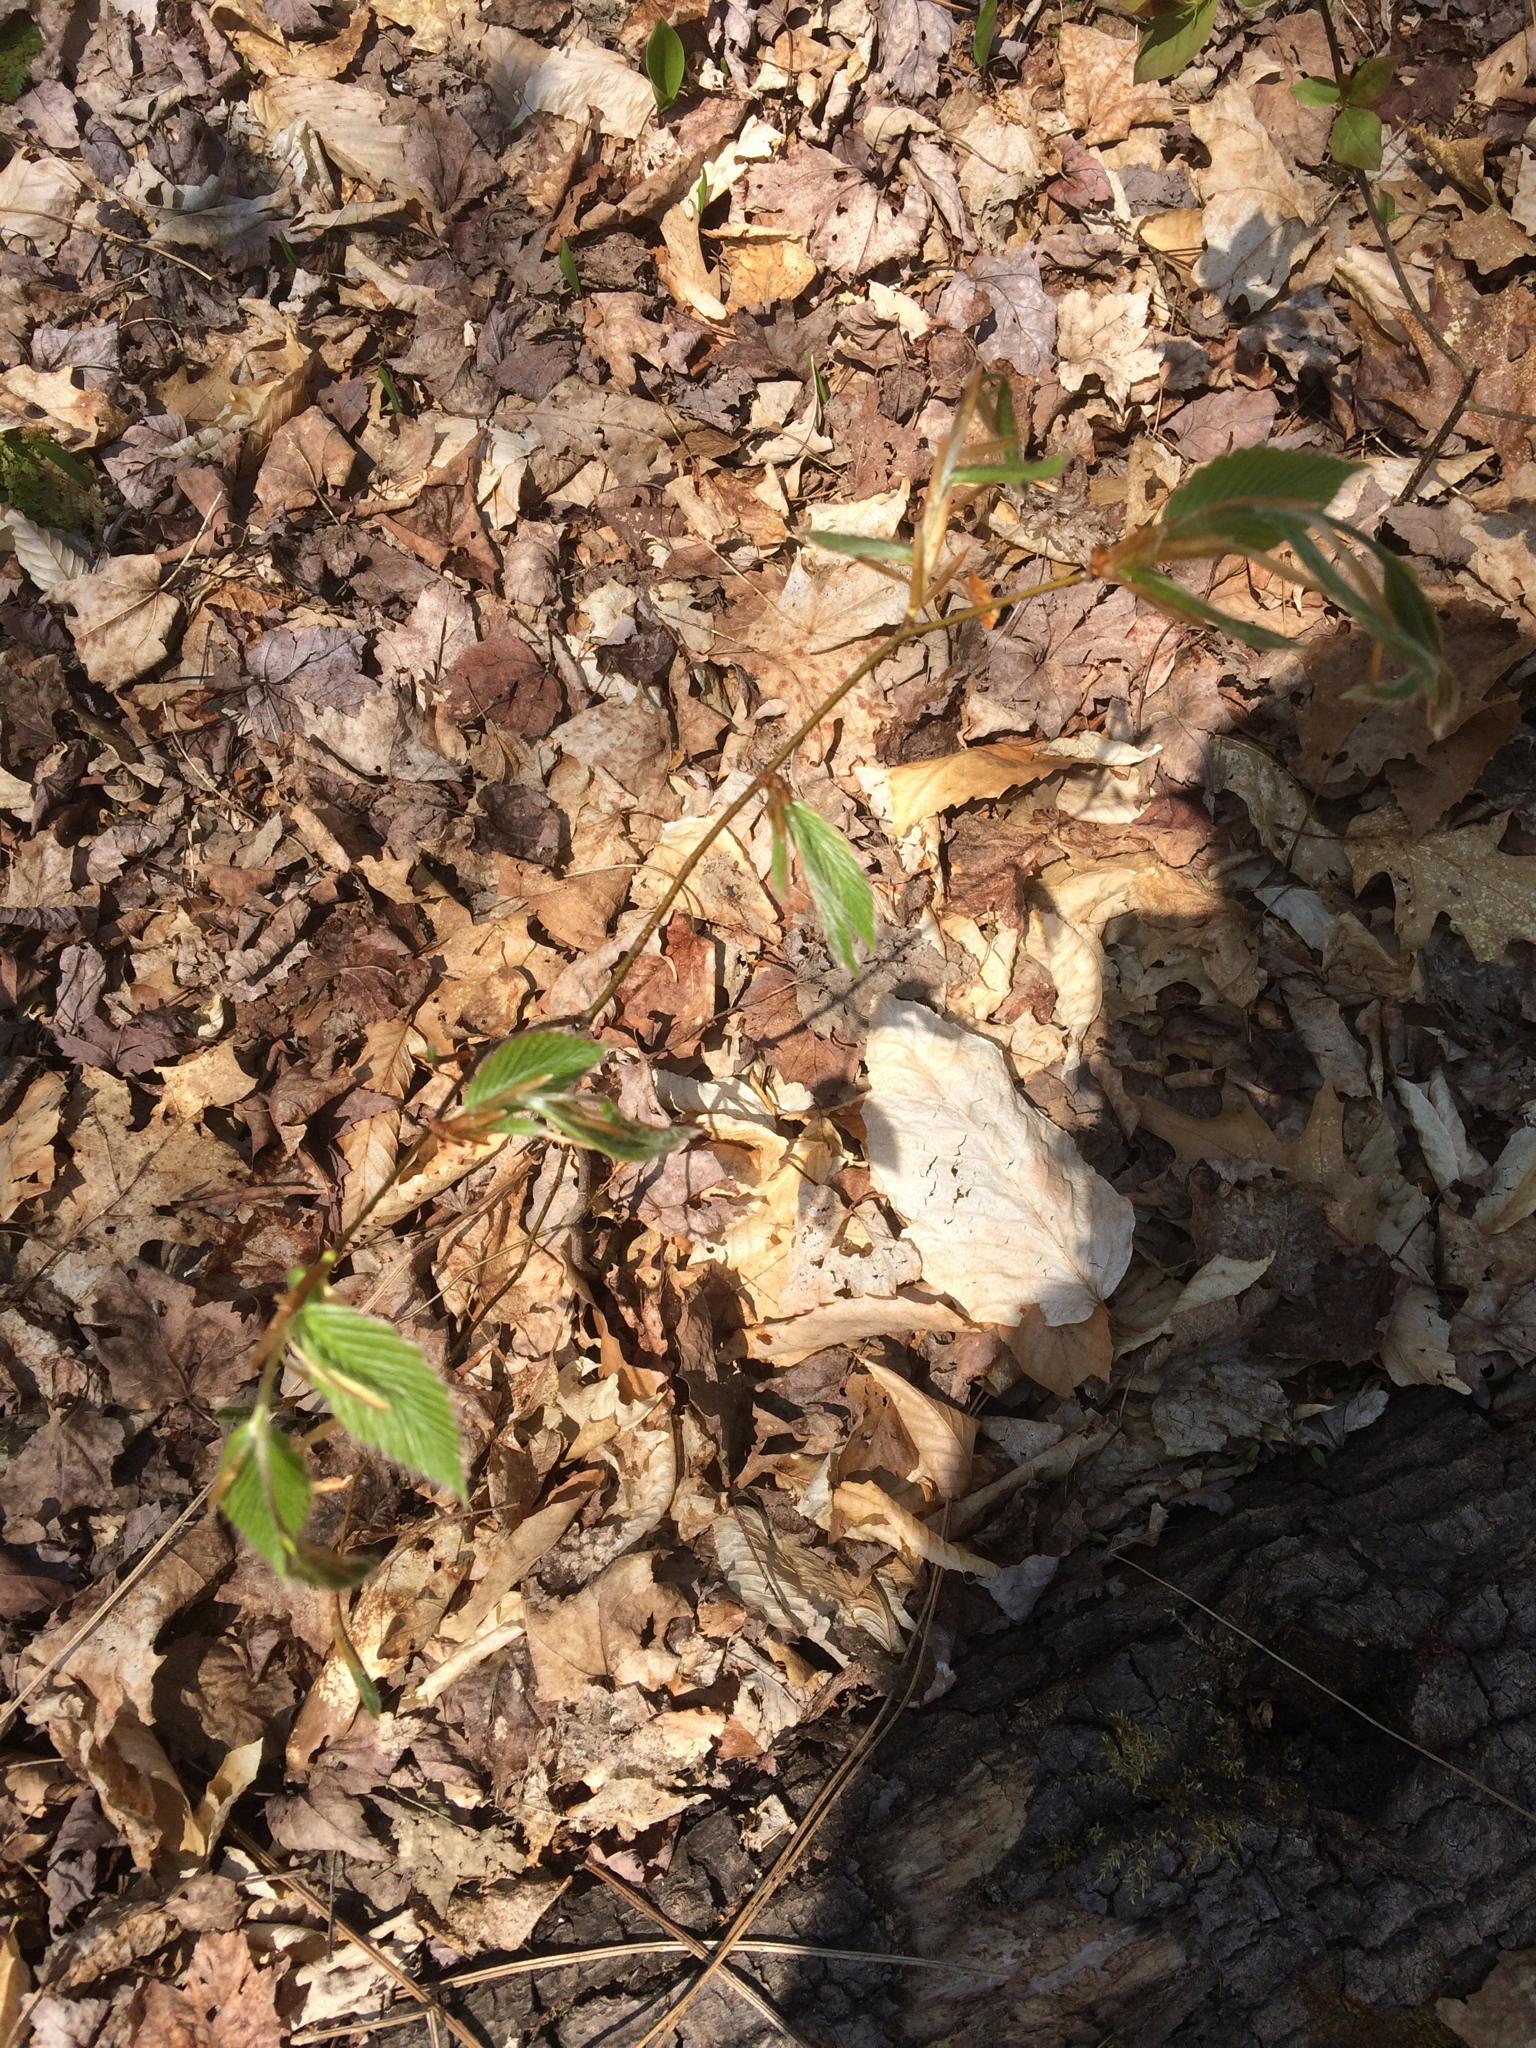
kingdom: Plantae
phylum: Tracheophyta
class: Magnoliopsida
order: Fagales
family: Fagaceae
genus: Fagus
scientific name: Fagus grandifolia
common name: American beech
